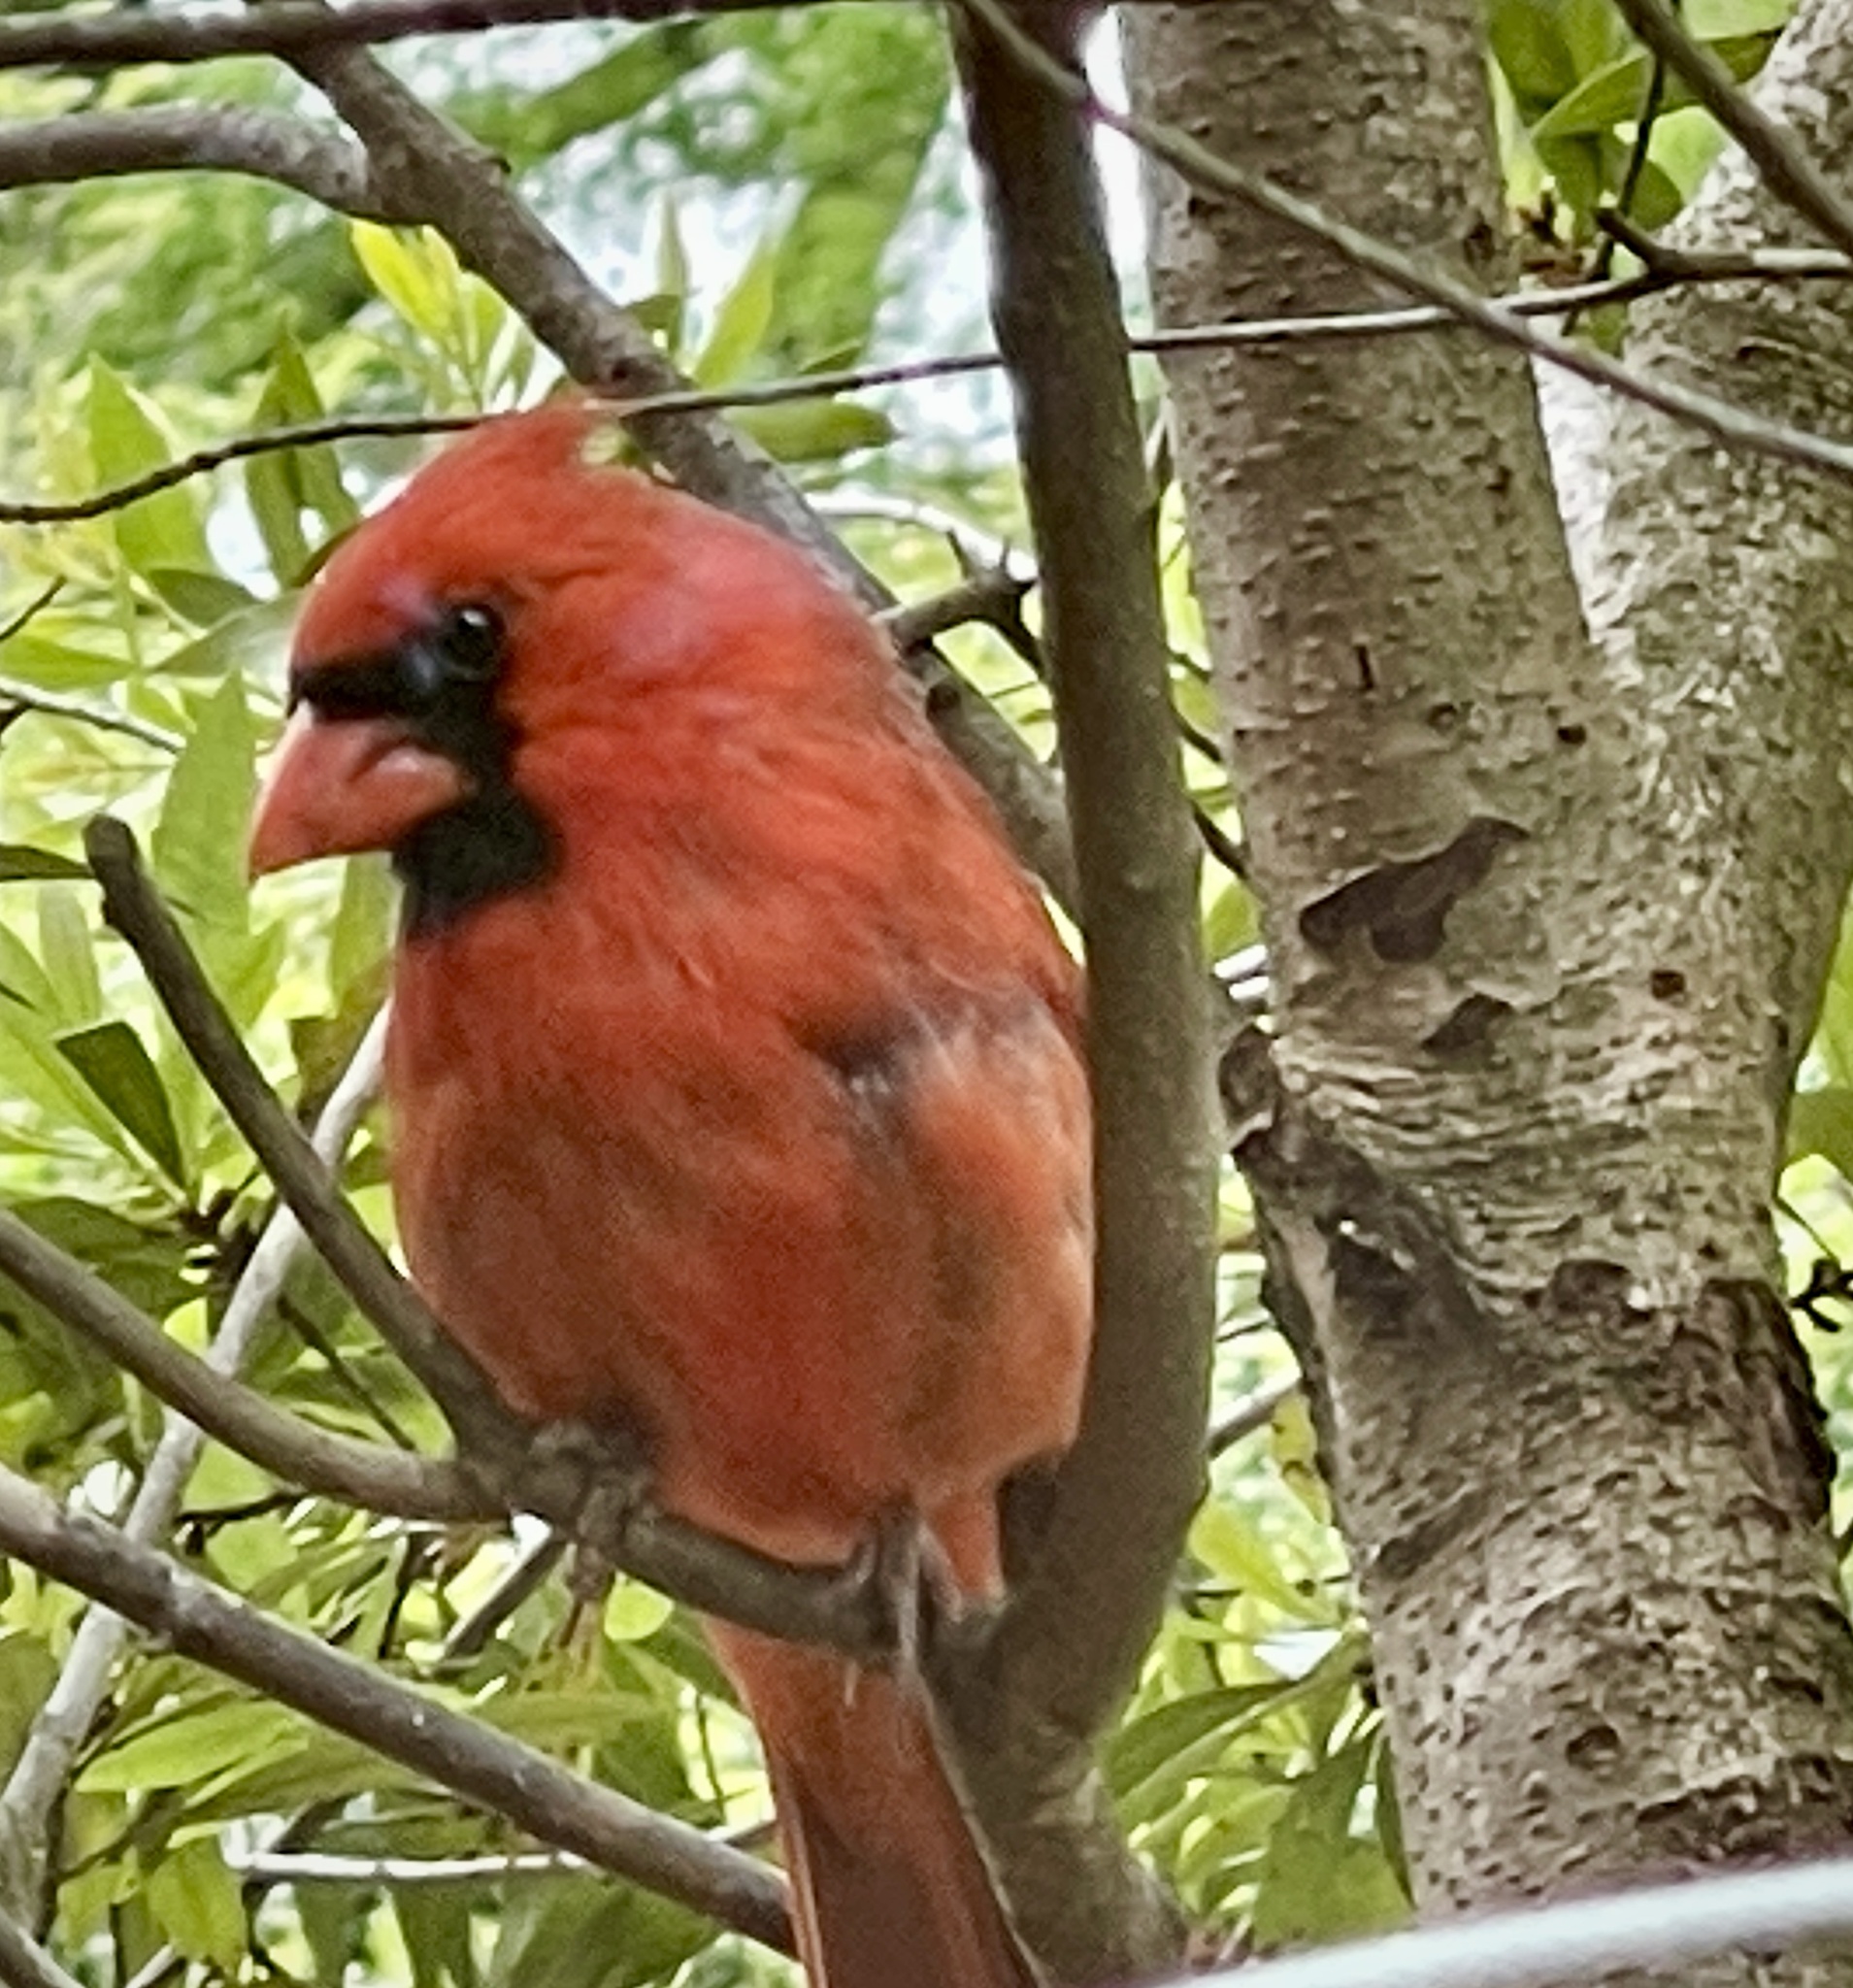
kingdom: Animalia
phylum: Chordata
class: Aves
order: Passeriformes
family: Cardinalidae
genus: Cardinalis
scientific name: Cardinalis cardinalis
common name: Northern cardinal
